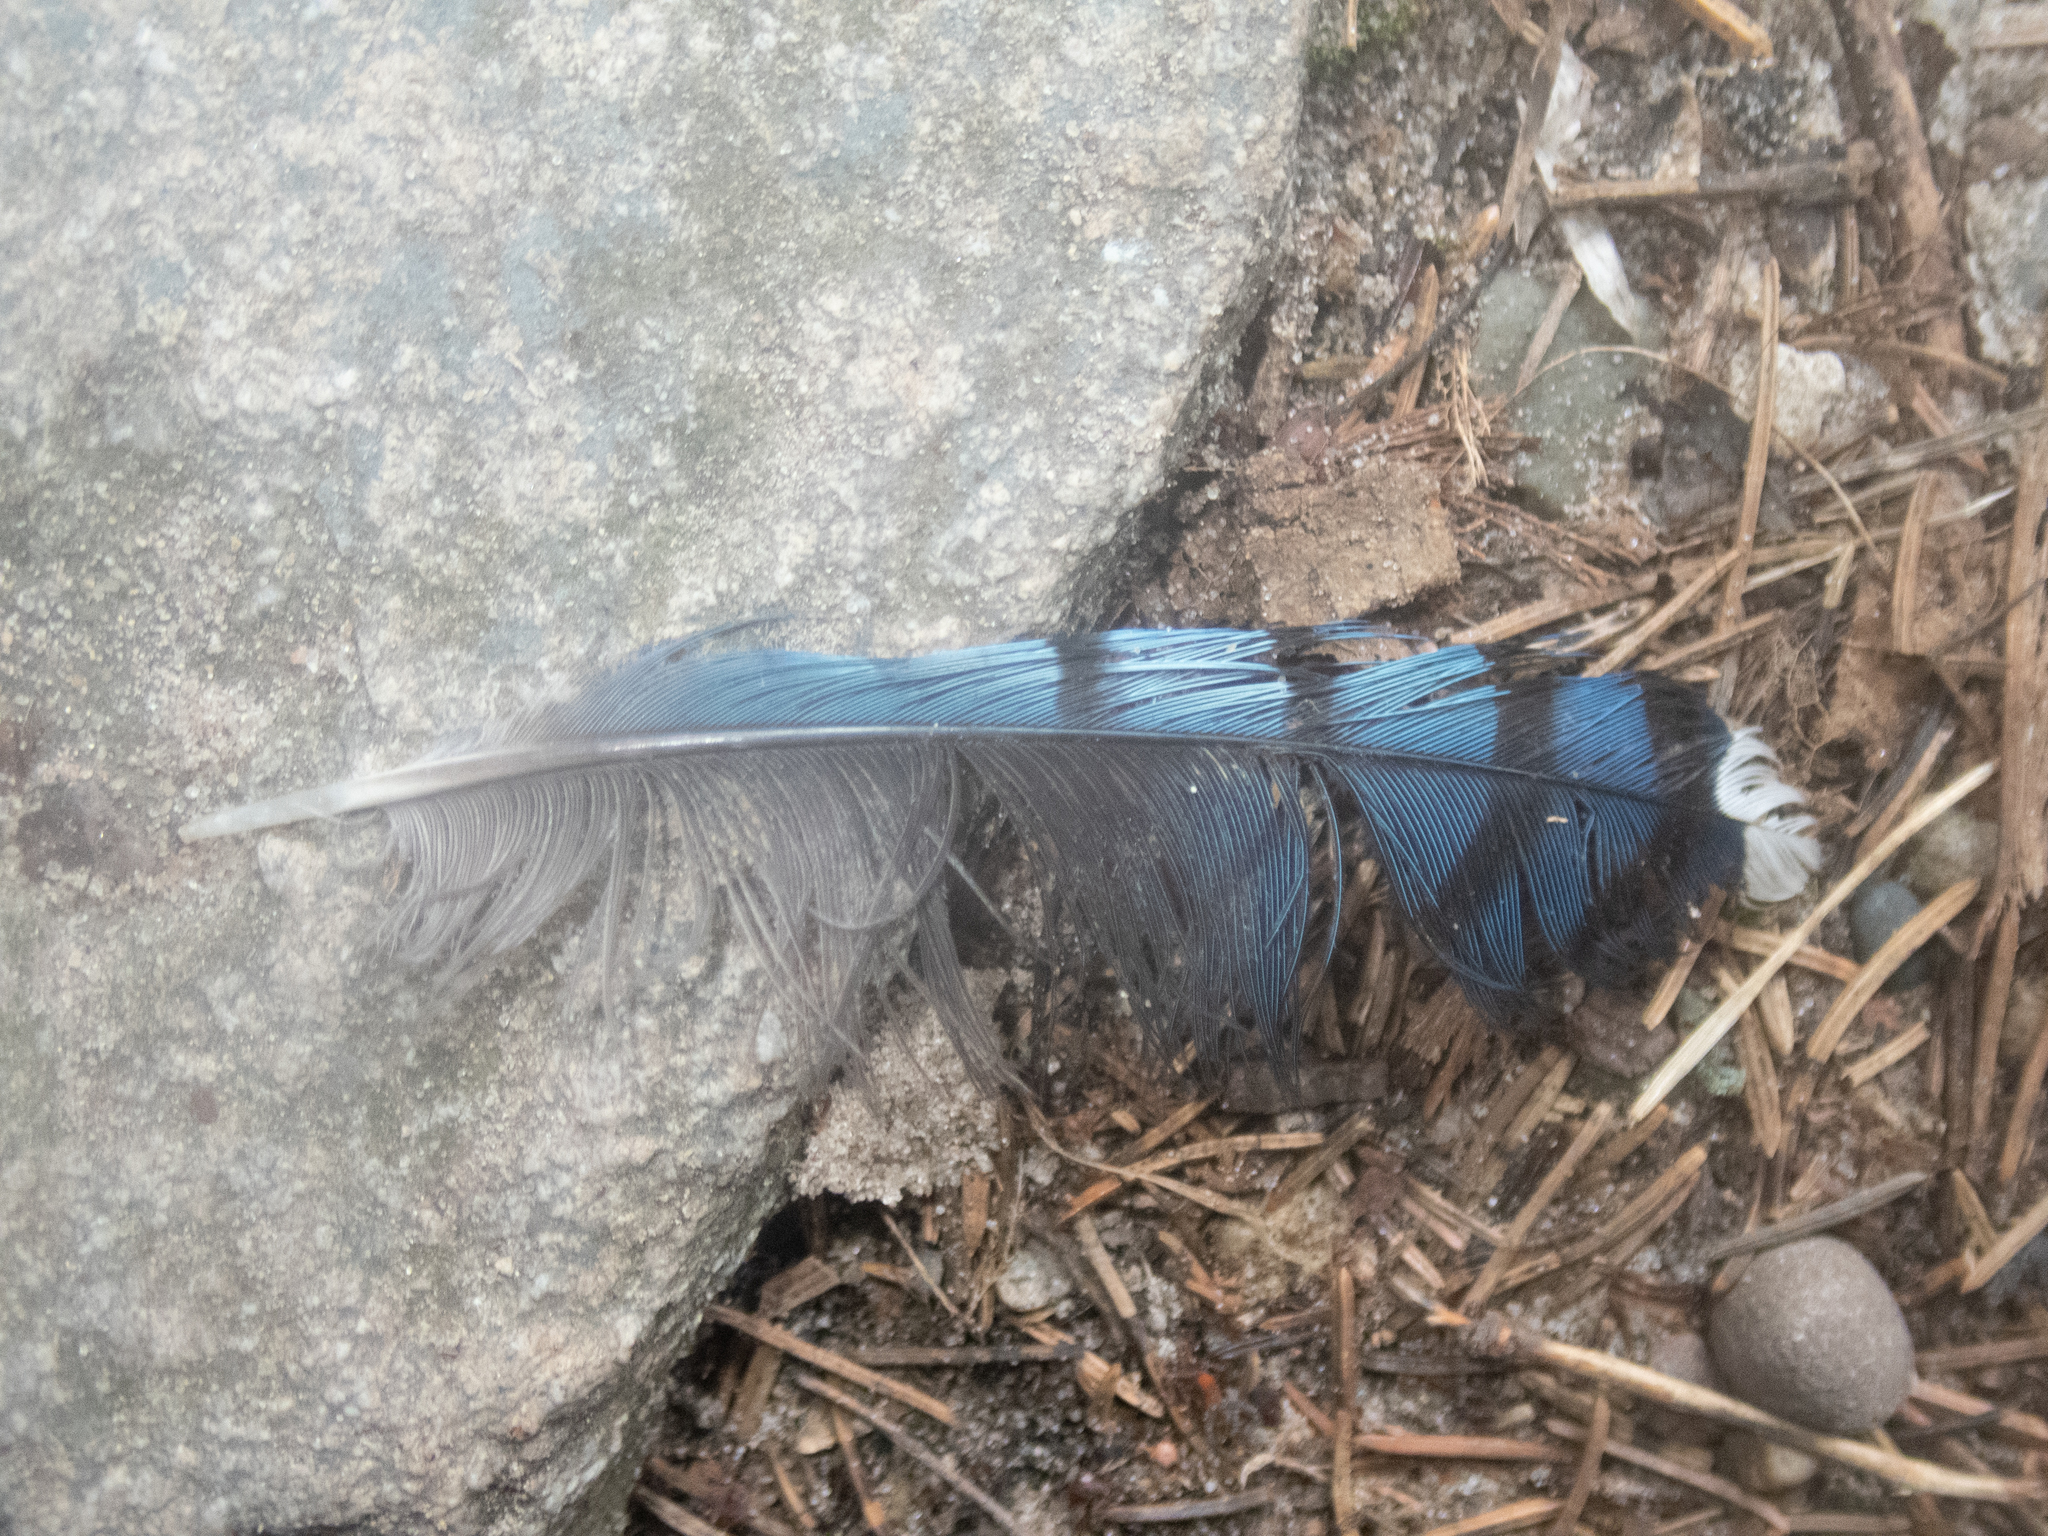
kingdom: Animalia
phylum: Chordata
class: Aves
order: Passeriformes
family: Corvidae
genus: Cyanocitta
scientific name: Cyanocitta cristata
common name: Blue jay
